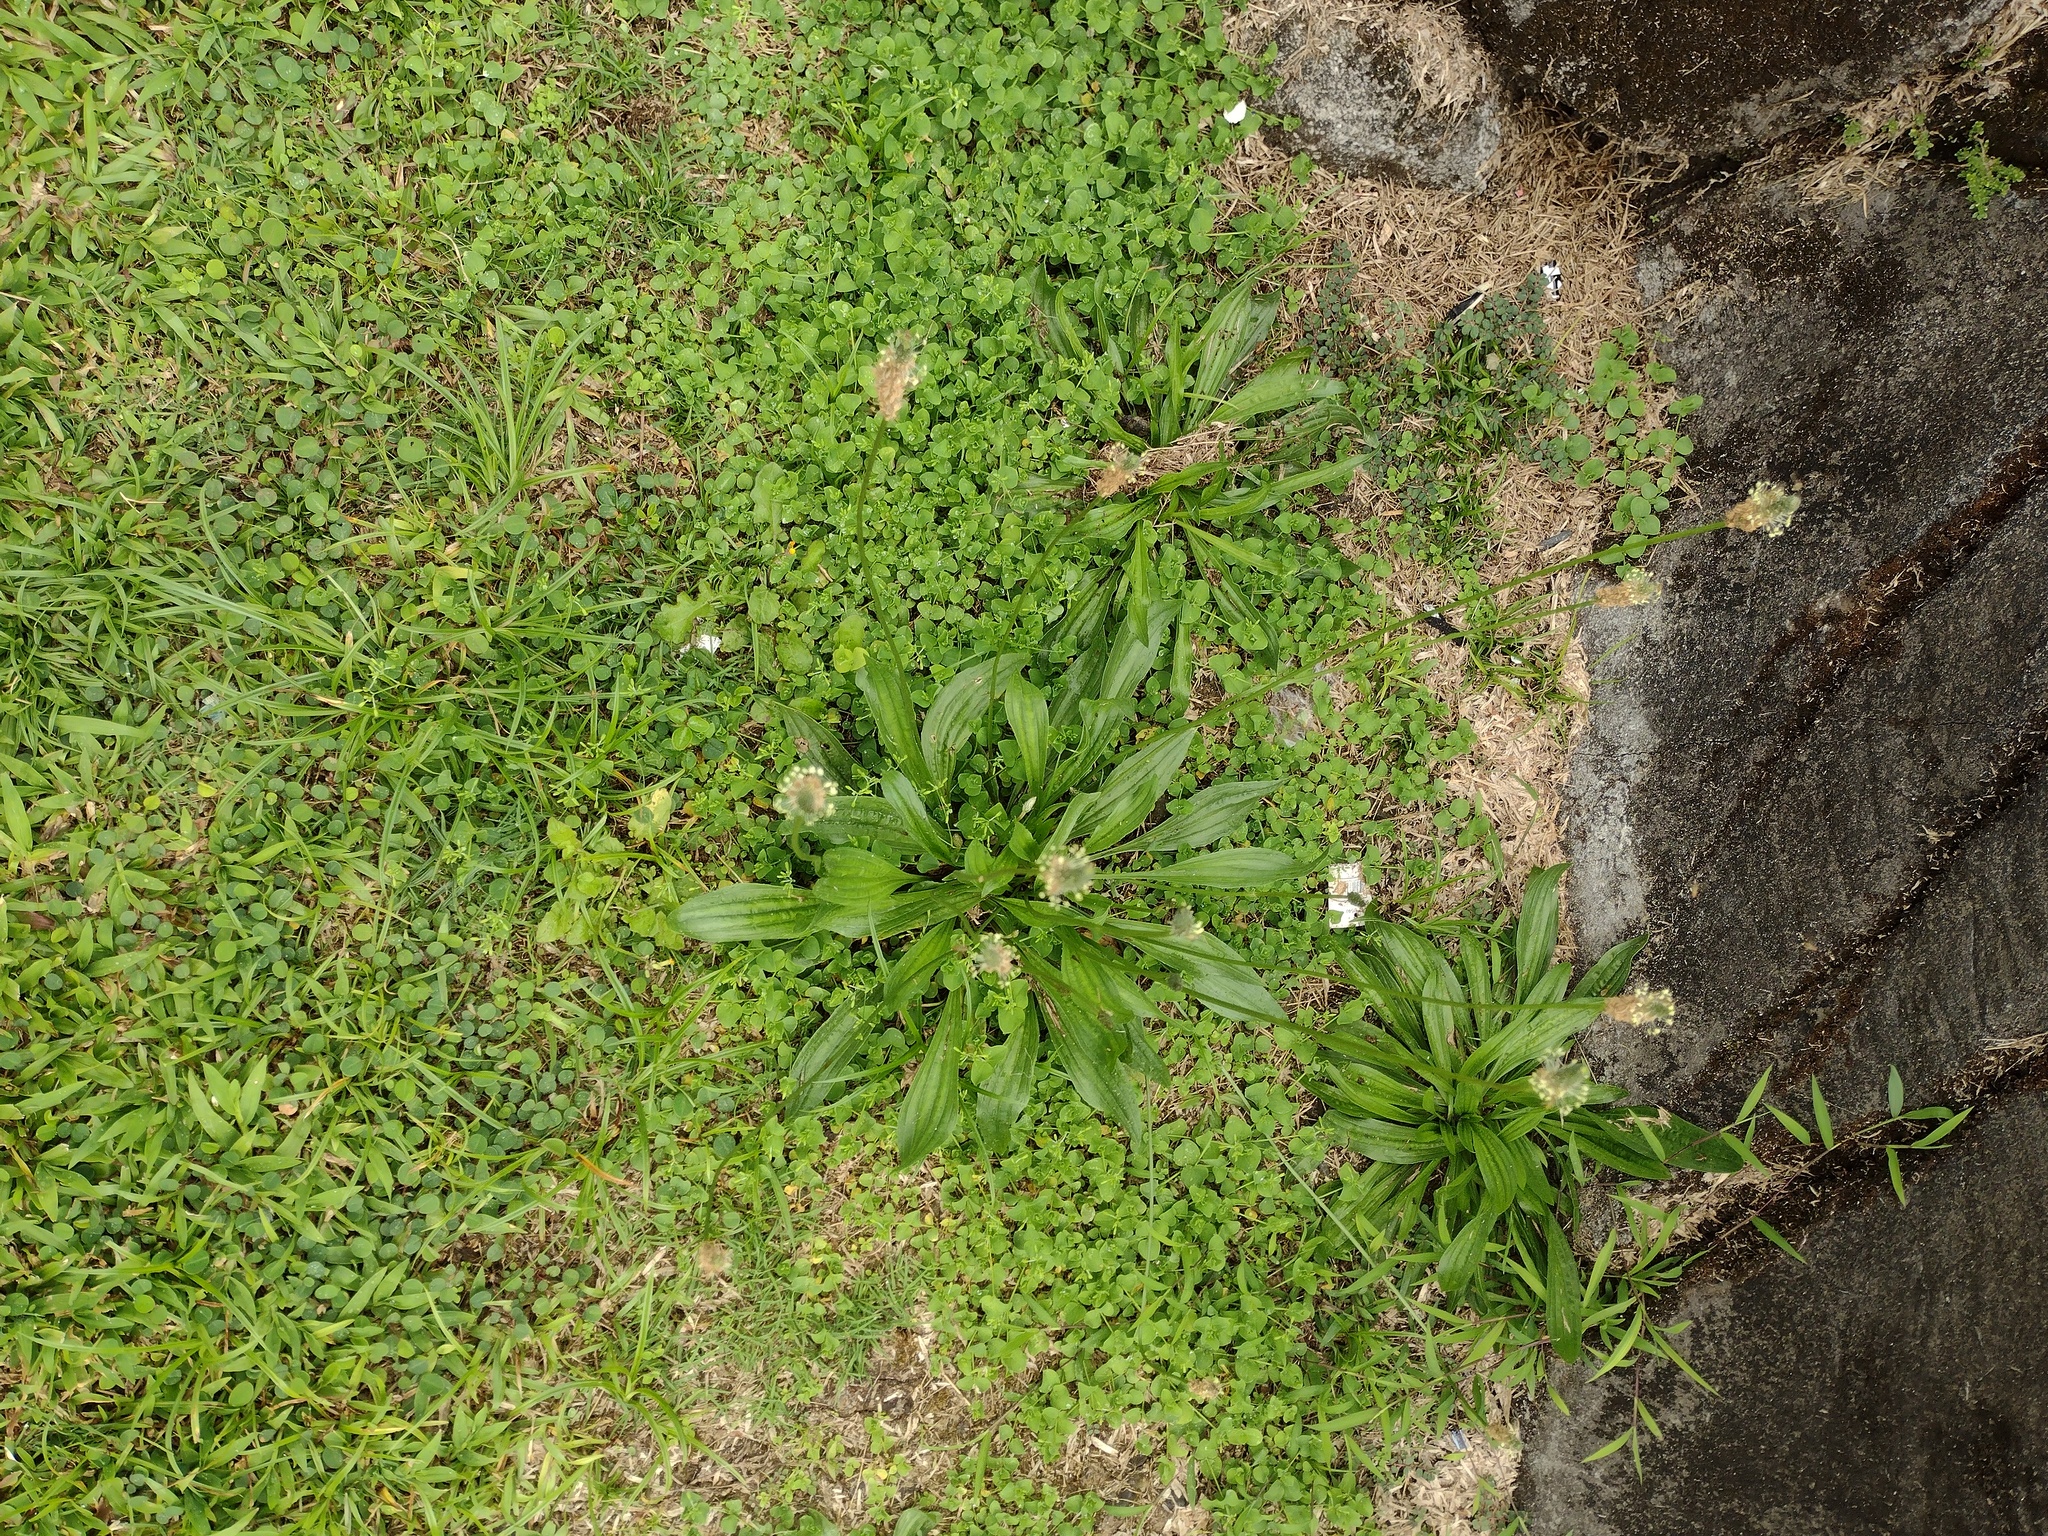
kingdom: Plantae
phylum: Tracheophyta
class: Magnoliopsida
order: Lamiales
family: Plantaginaceae
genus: Plantago
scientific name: Plantago lanceolata
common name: Ribwort plantain
